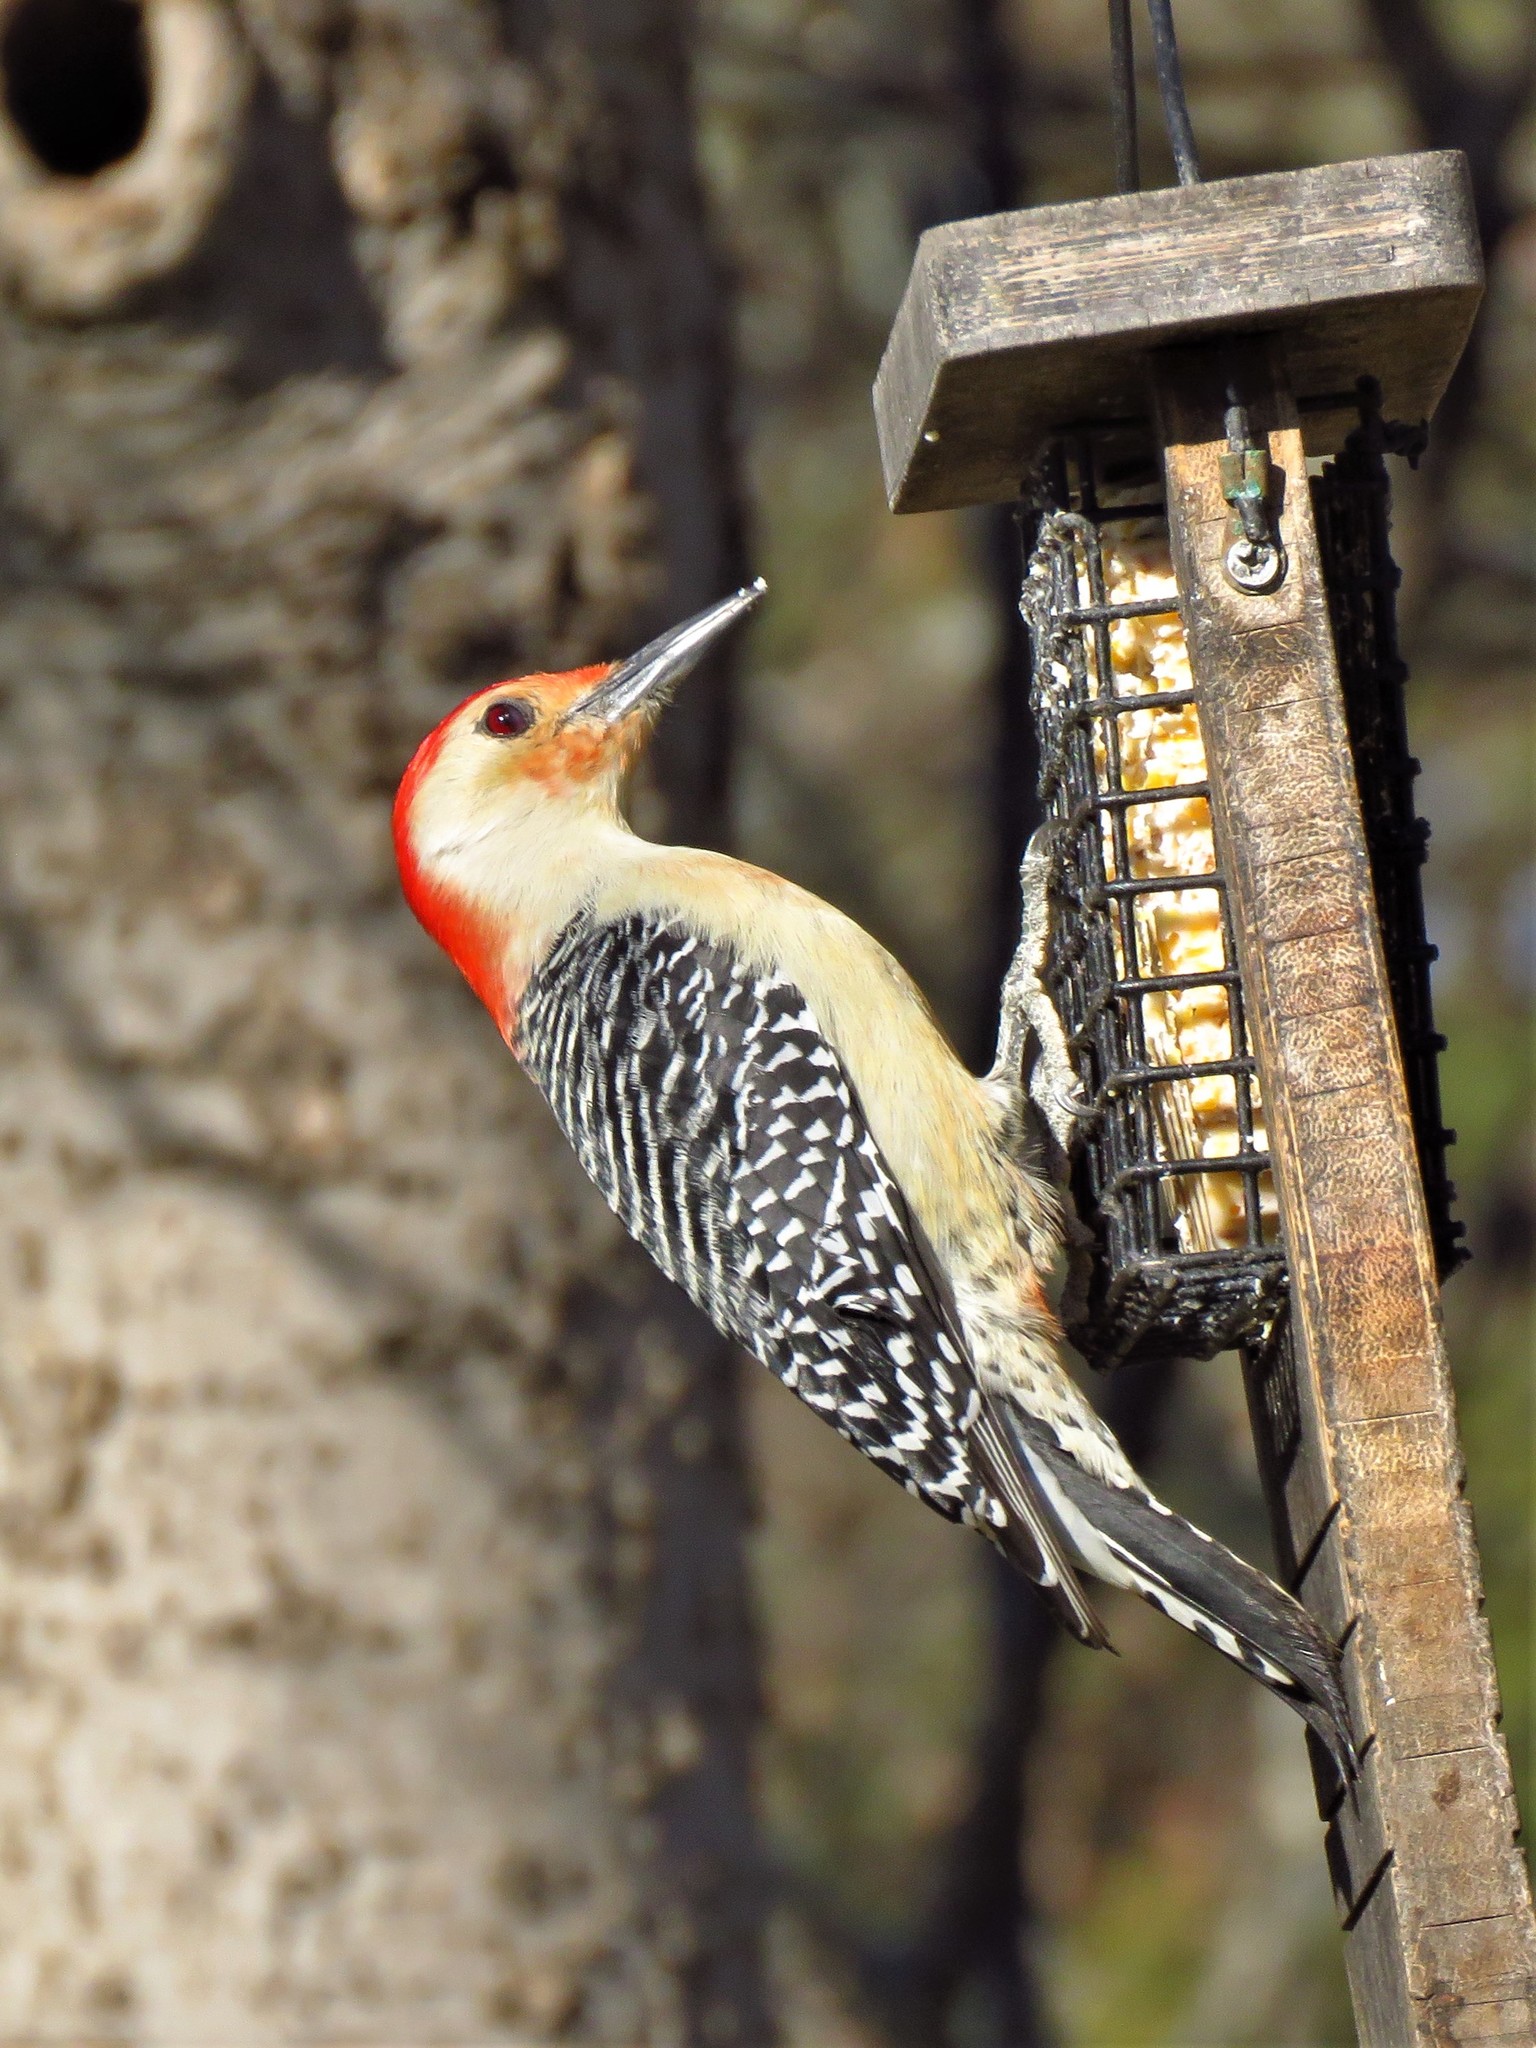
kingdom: Animalia
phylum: Chordata
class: Aves
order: Piciformes
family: Picidae
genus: Melanerpes
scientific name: Melanerpes carolinus
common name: Red-bellied woodpecker
